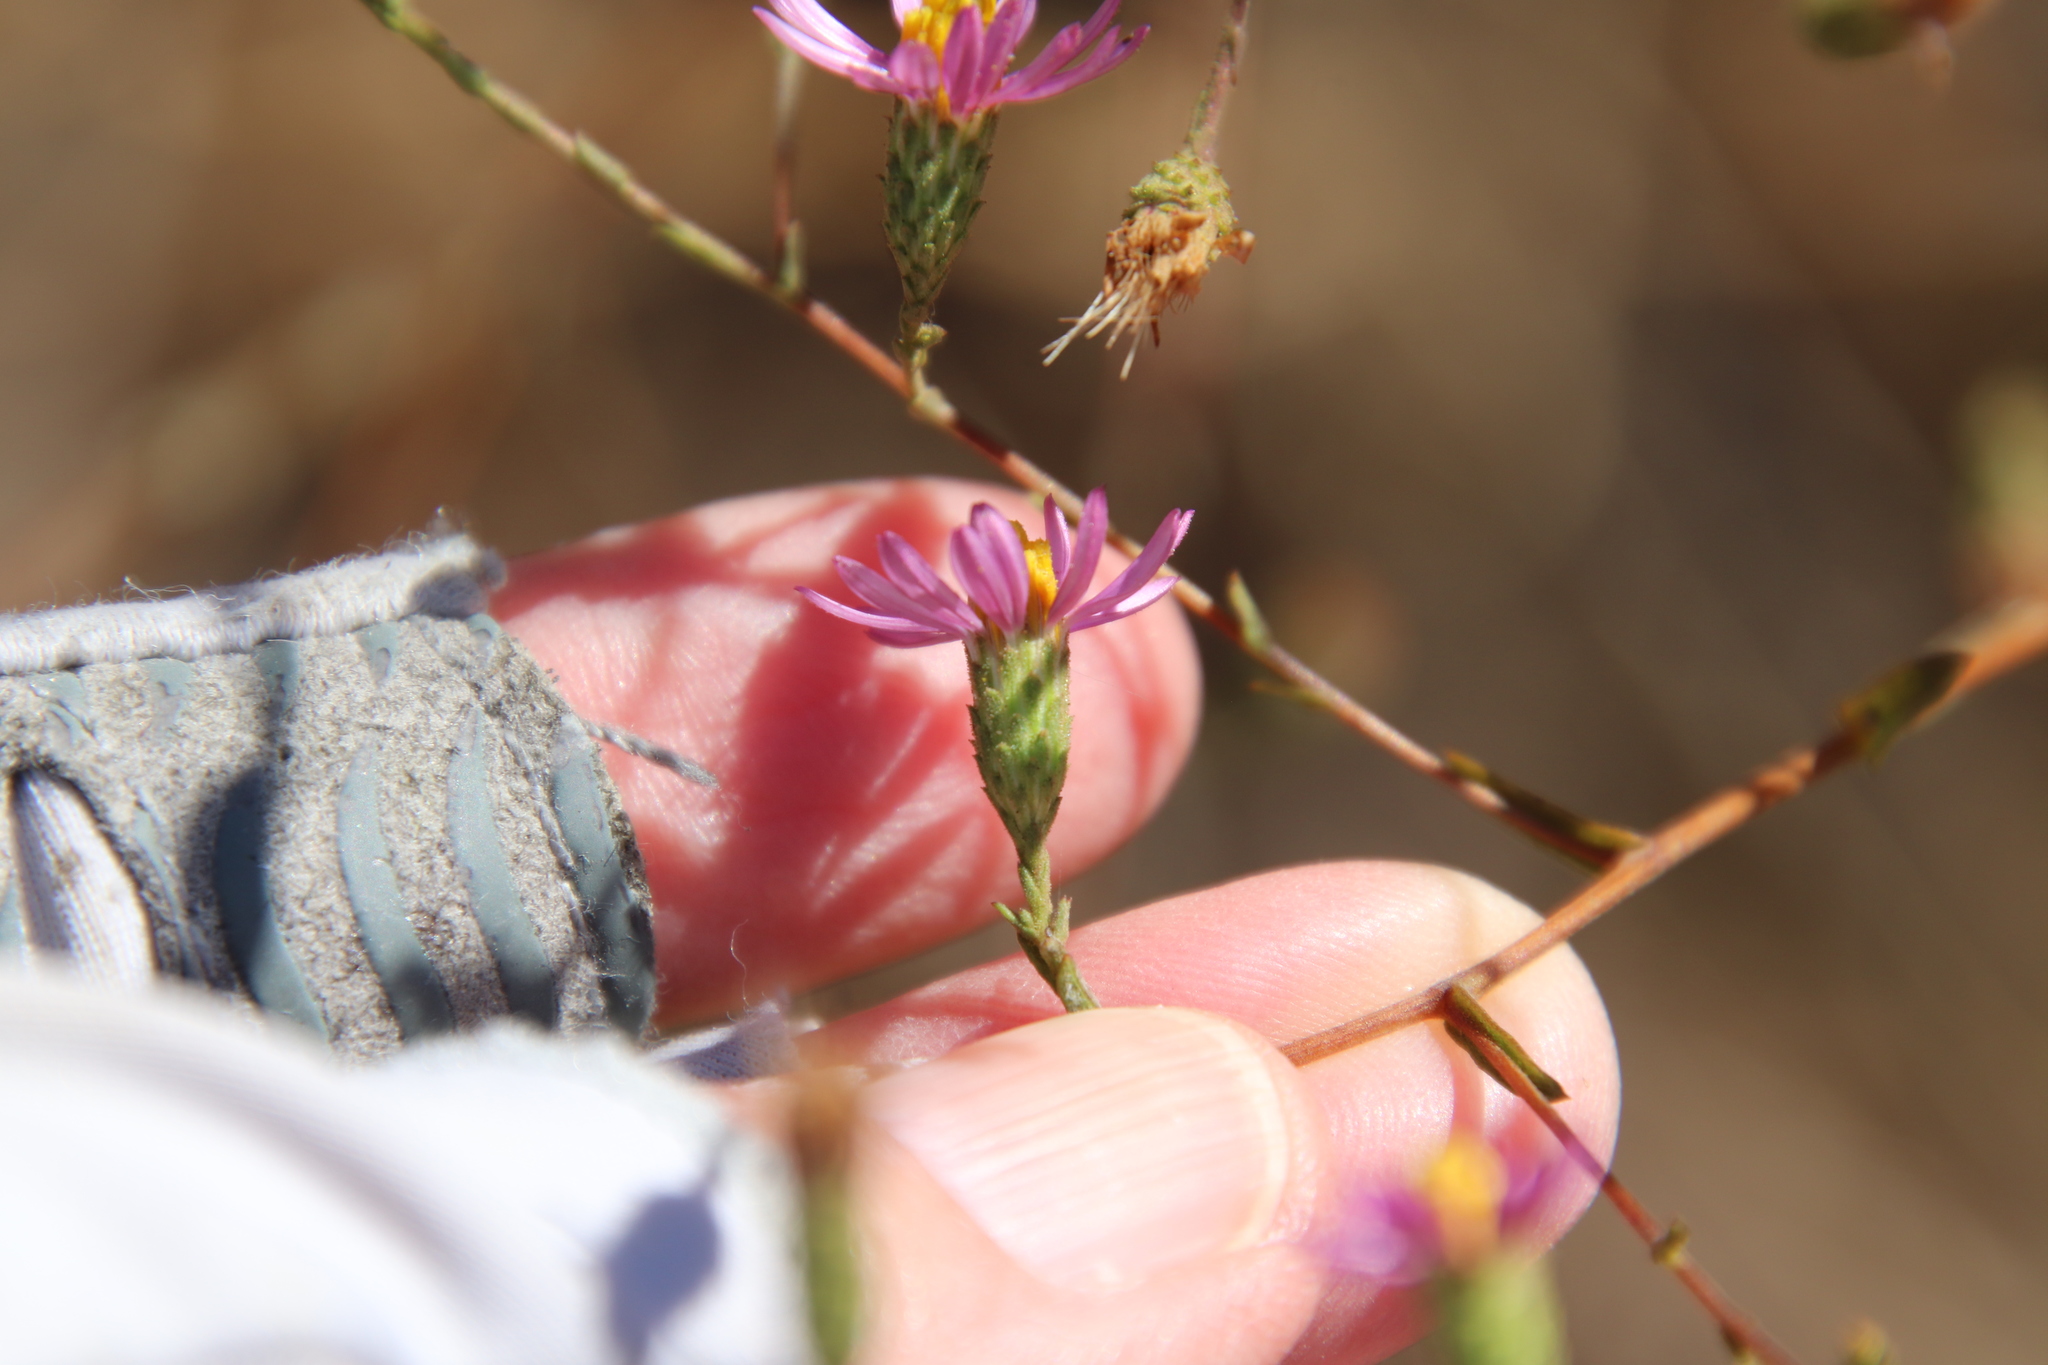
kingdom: Plantae
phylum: Tracheophyta
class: Magnoliopsida
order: Asterales
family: Asteraceae
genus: Corethrogyne
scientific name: Corethrogyne filaginifolia
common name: Sand-aster
